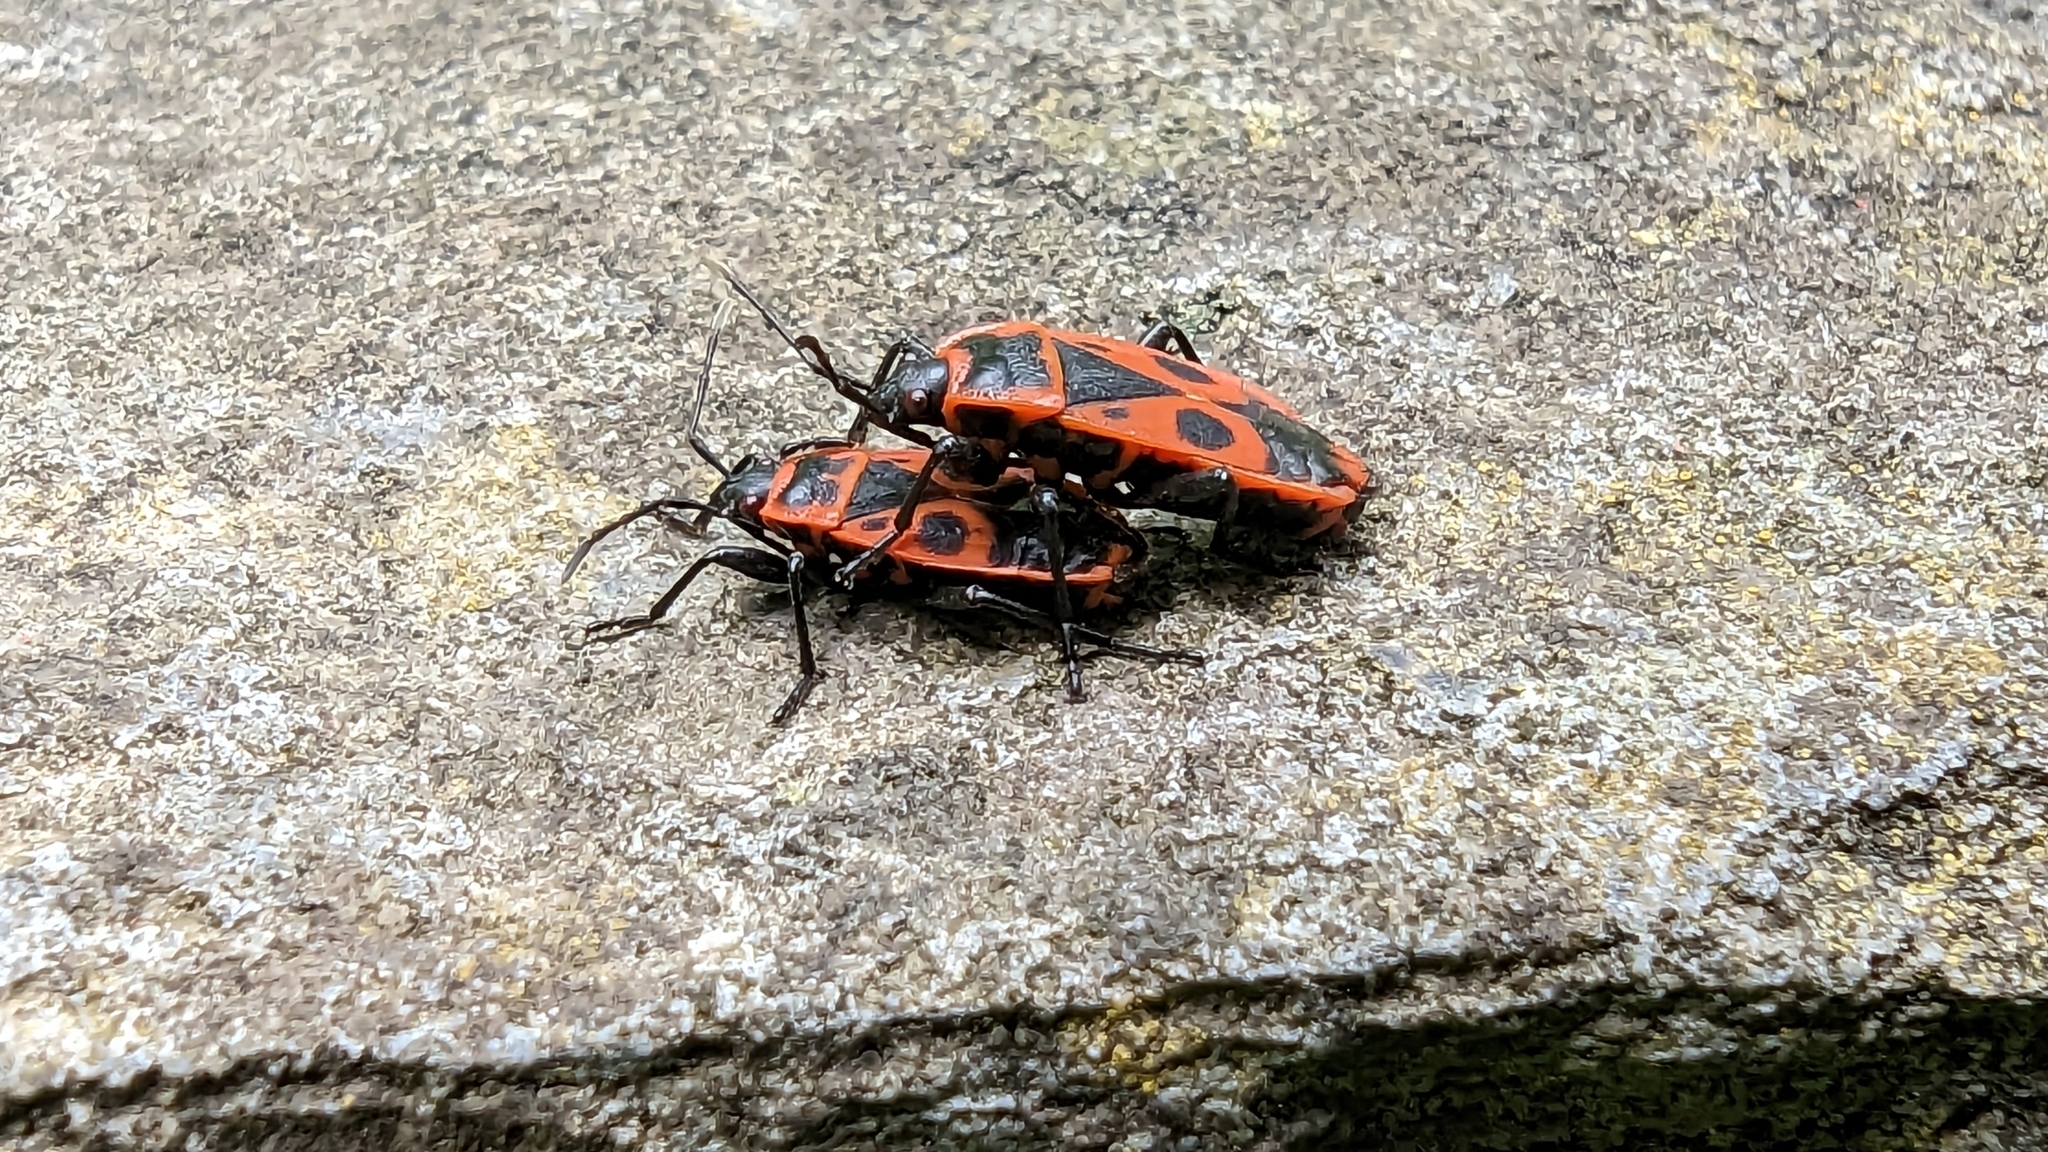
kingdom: Animalia
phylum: Arthropoda
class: Insecta
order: Hemiptera
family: Pyrrhocoridae
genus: Pyrrhocoris
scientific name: Pyrrhocoris apterus
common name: Firebug
